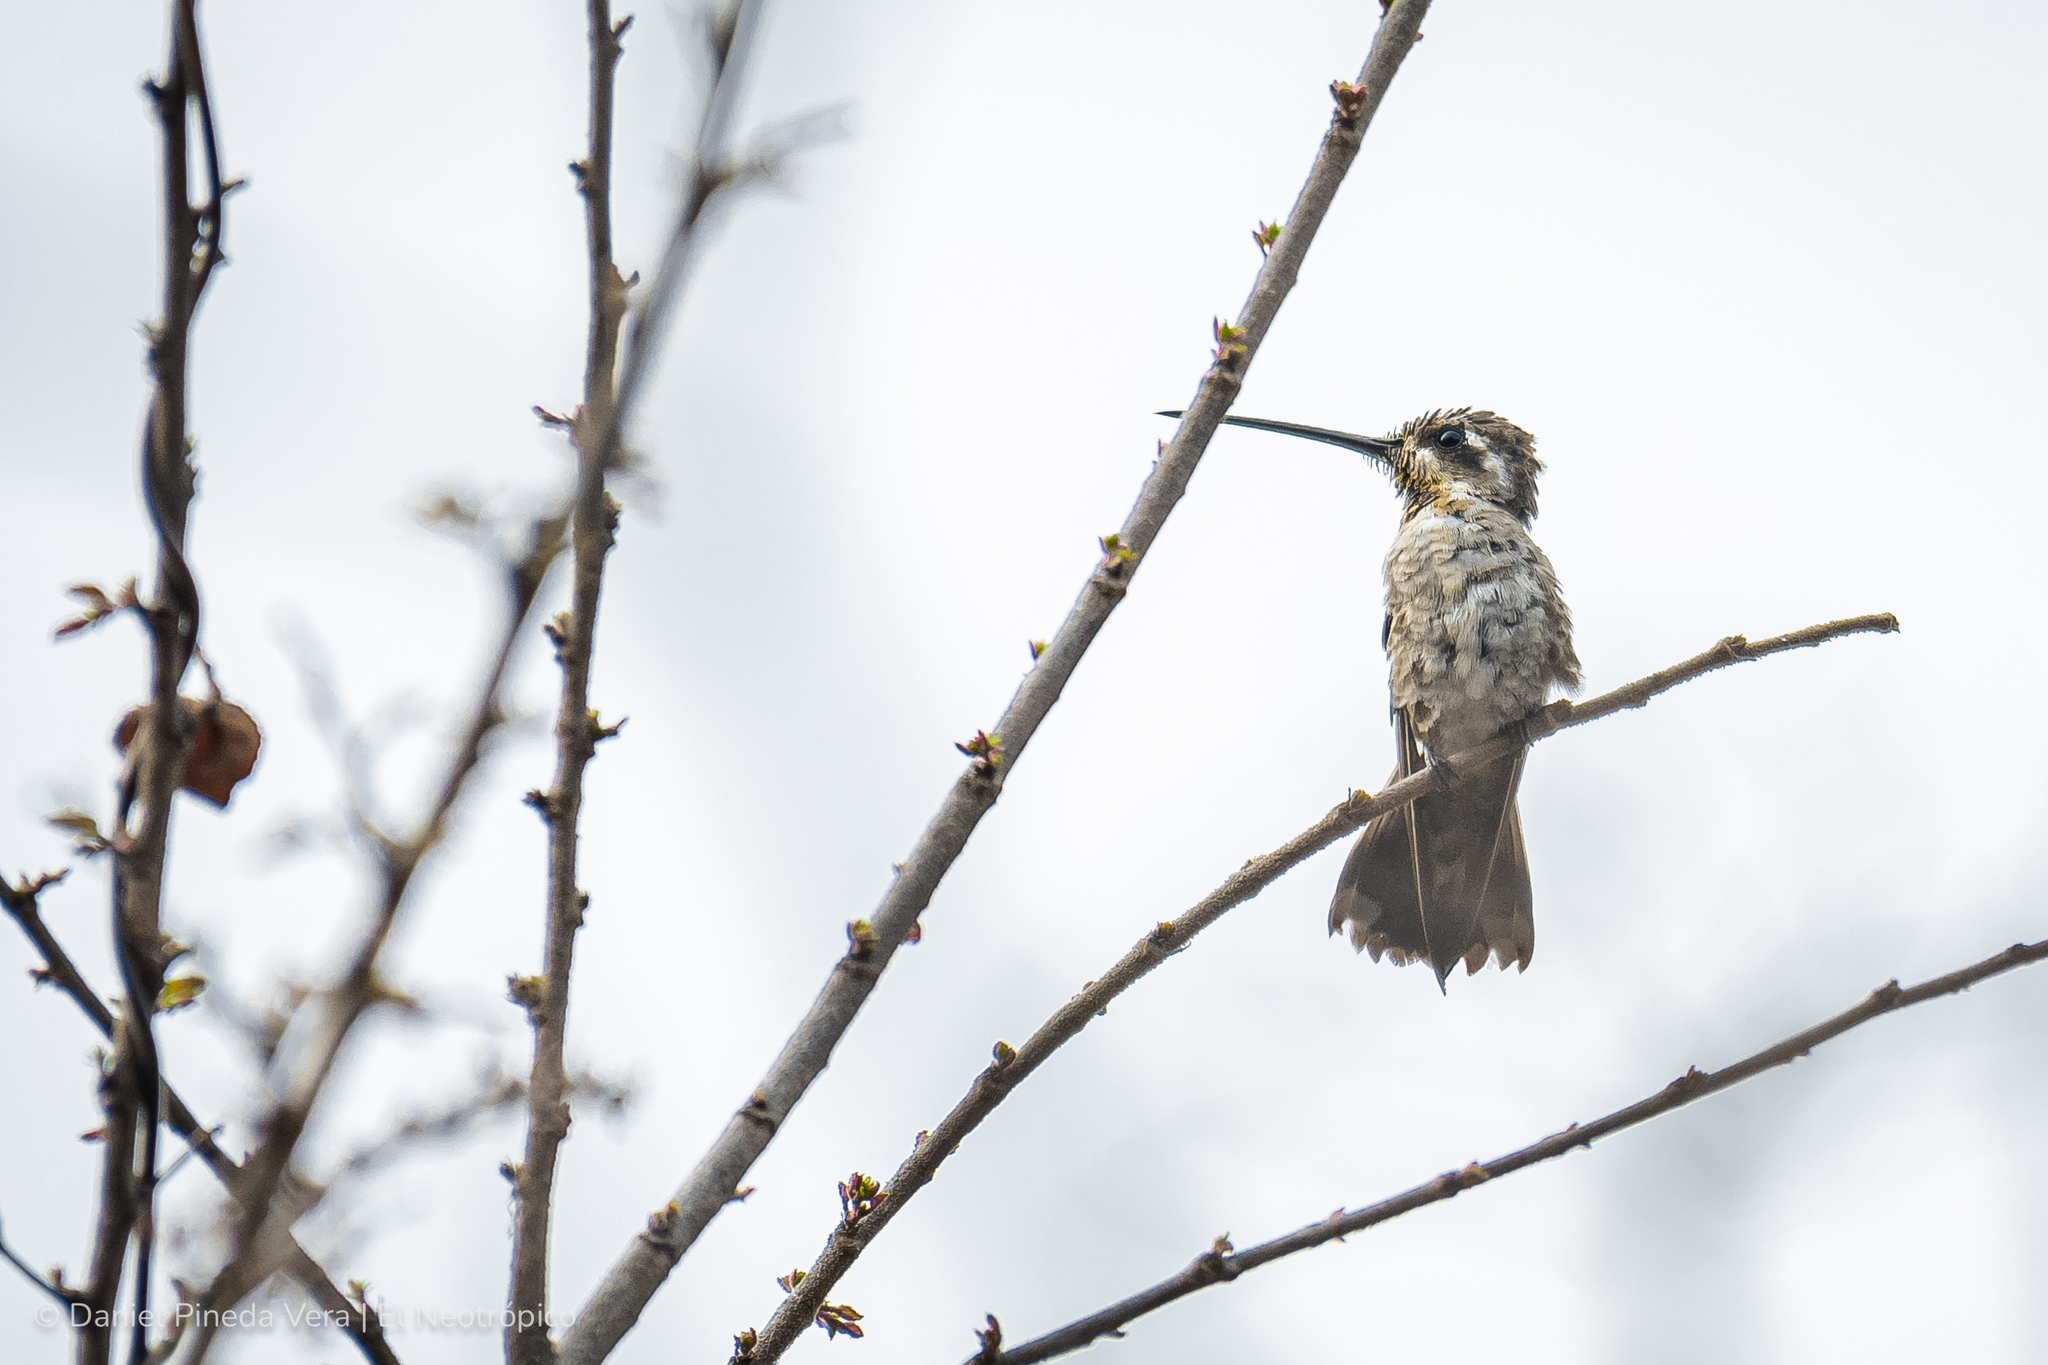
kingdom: Animalia
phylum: Chordata
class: Aves
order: Apodiformes
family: Trochilidae
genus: Heliomaster
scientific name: Heliomaster constantii
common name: Plain-capped starthroat
